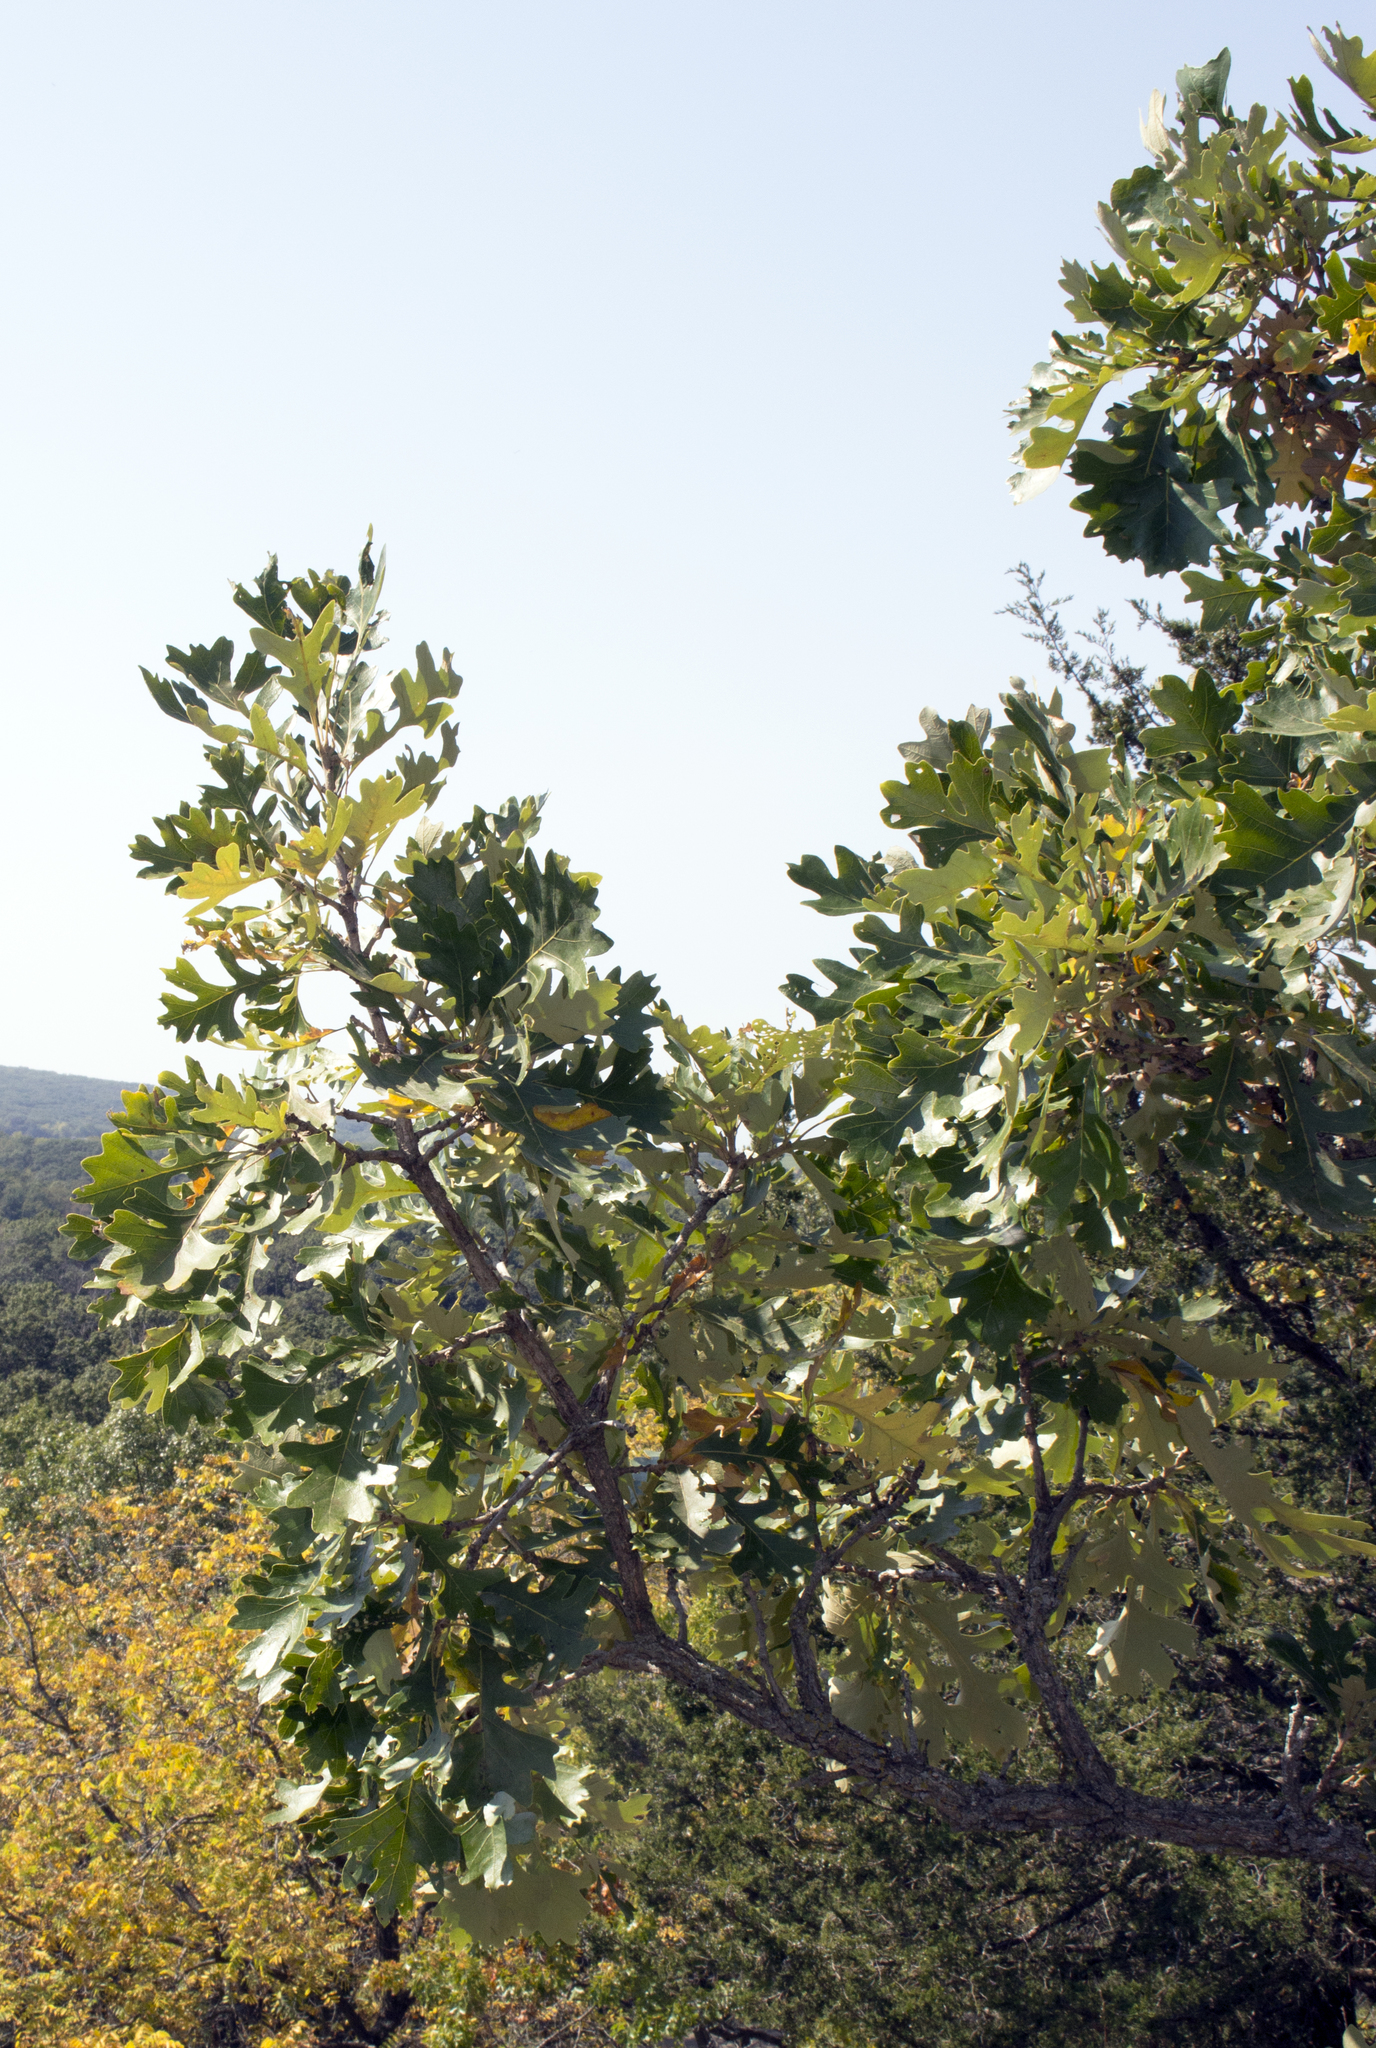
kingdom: Plantae
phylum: Tracheophyta
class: Magnoliopsida
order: Fagales
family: Fagaceae
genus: Quercus
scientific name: Quercus macrocarpa
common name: Bur oak
